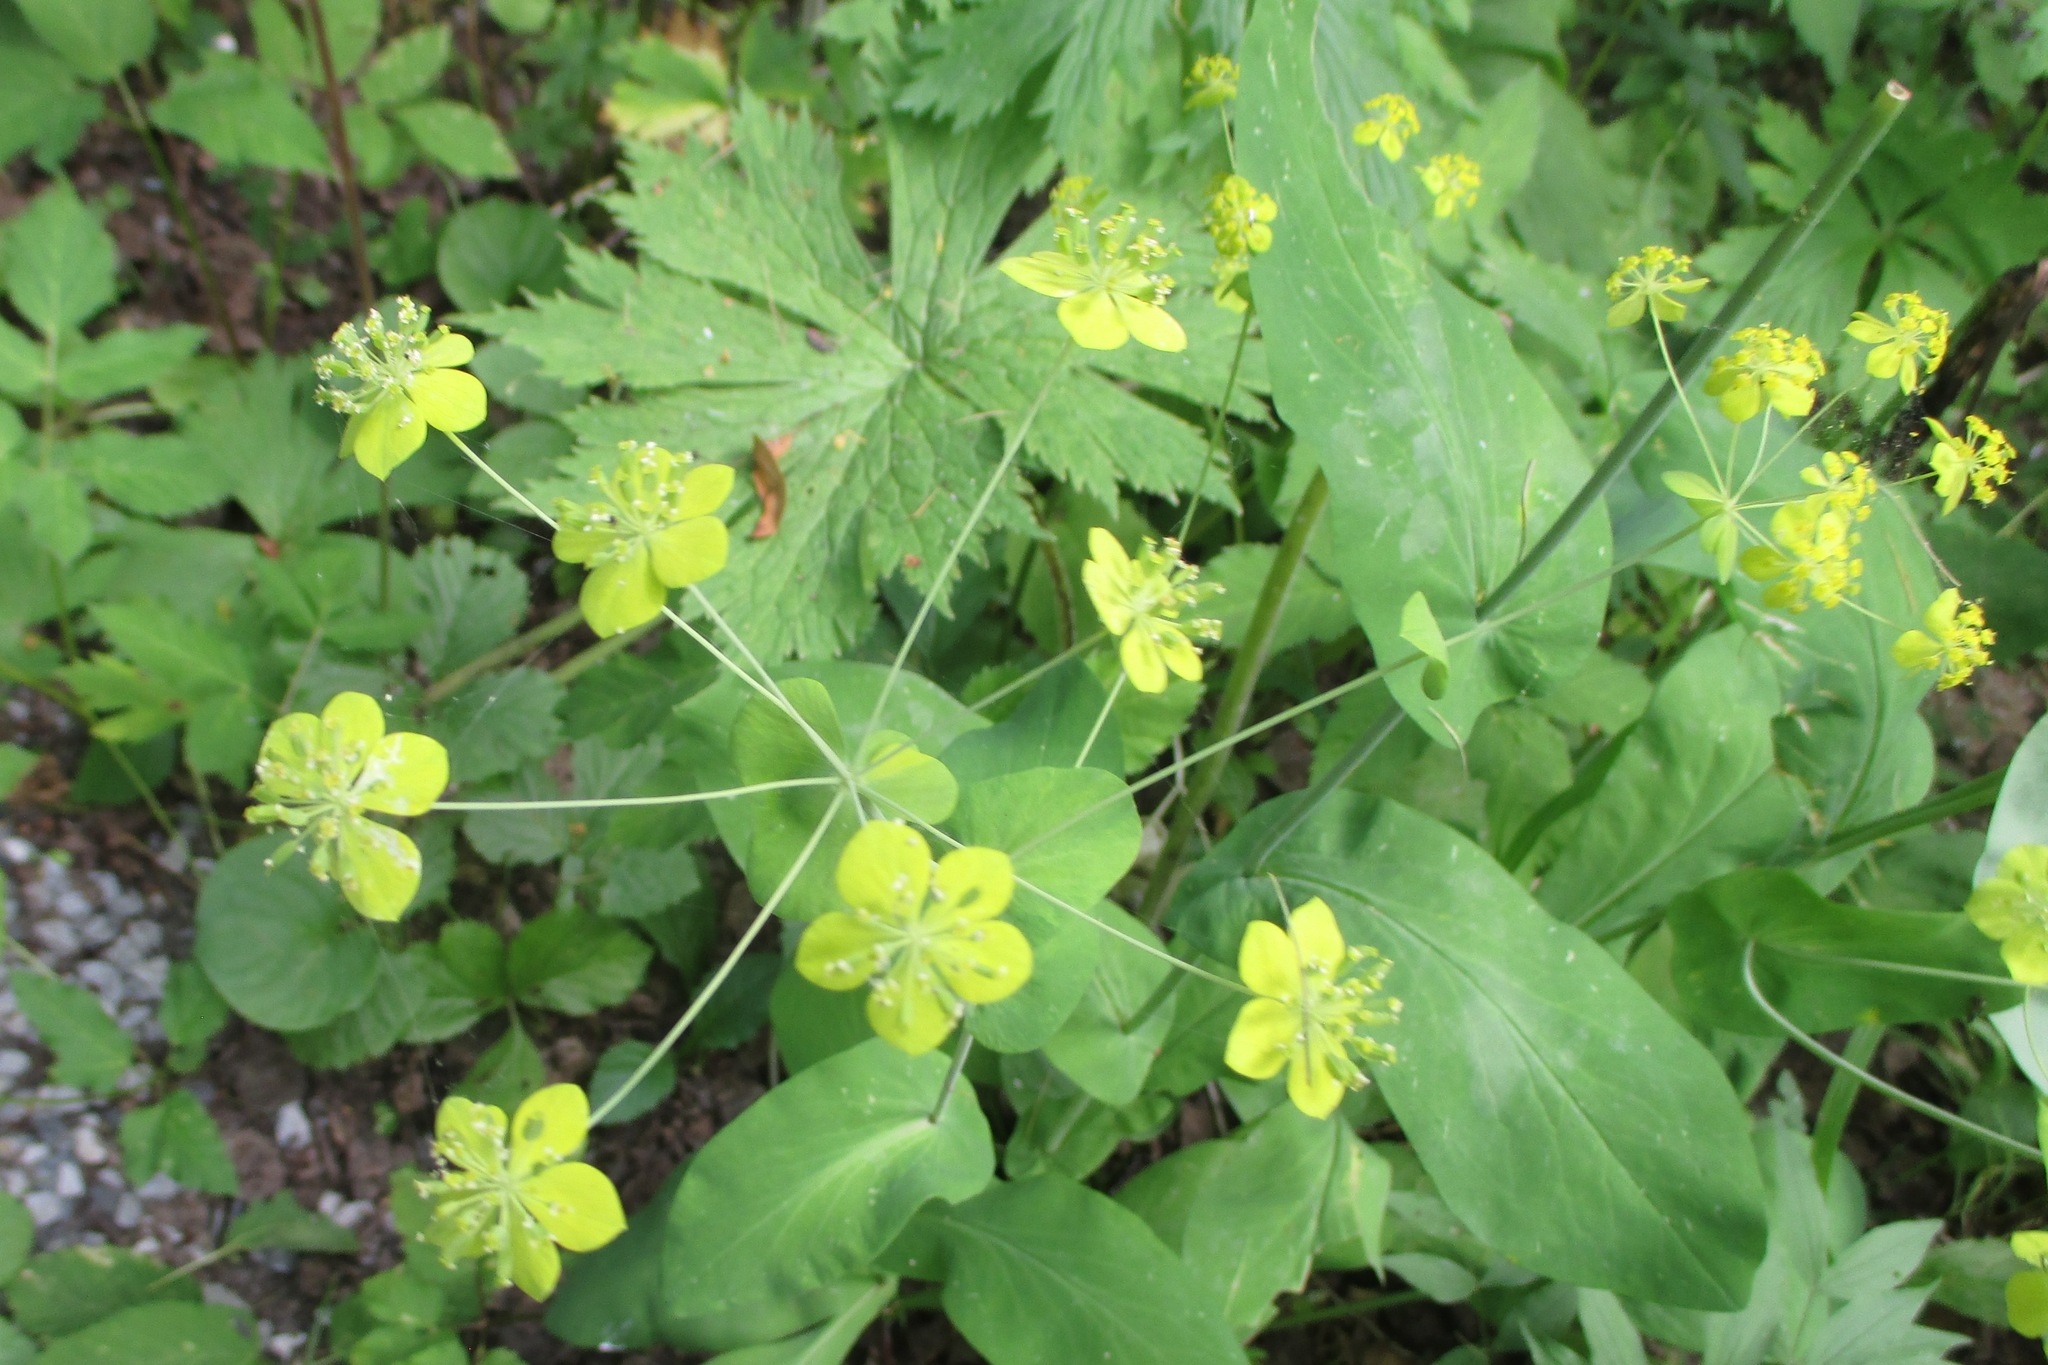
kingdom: Plantae
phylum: Tracheophyta
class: Magnoliopsida
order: Apiales
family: Apiaceae
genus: Bupleurum
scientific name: Bupleurum aureum
